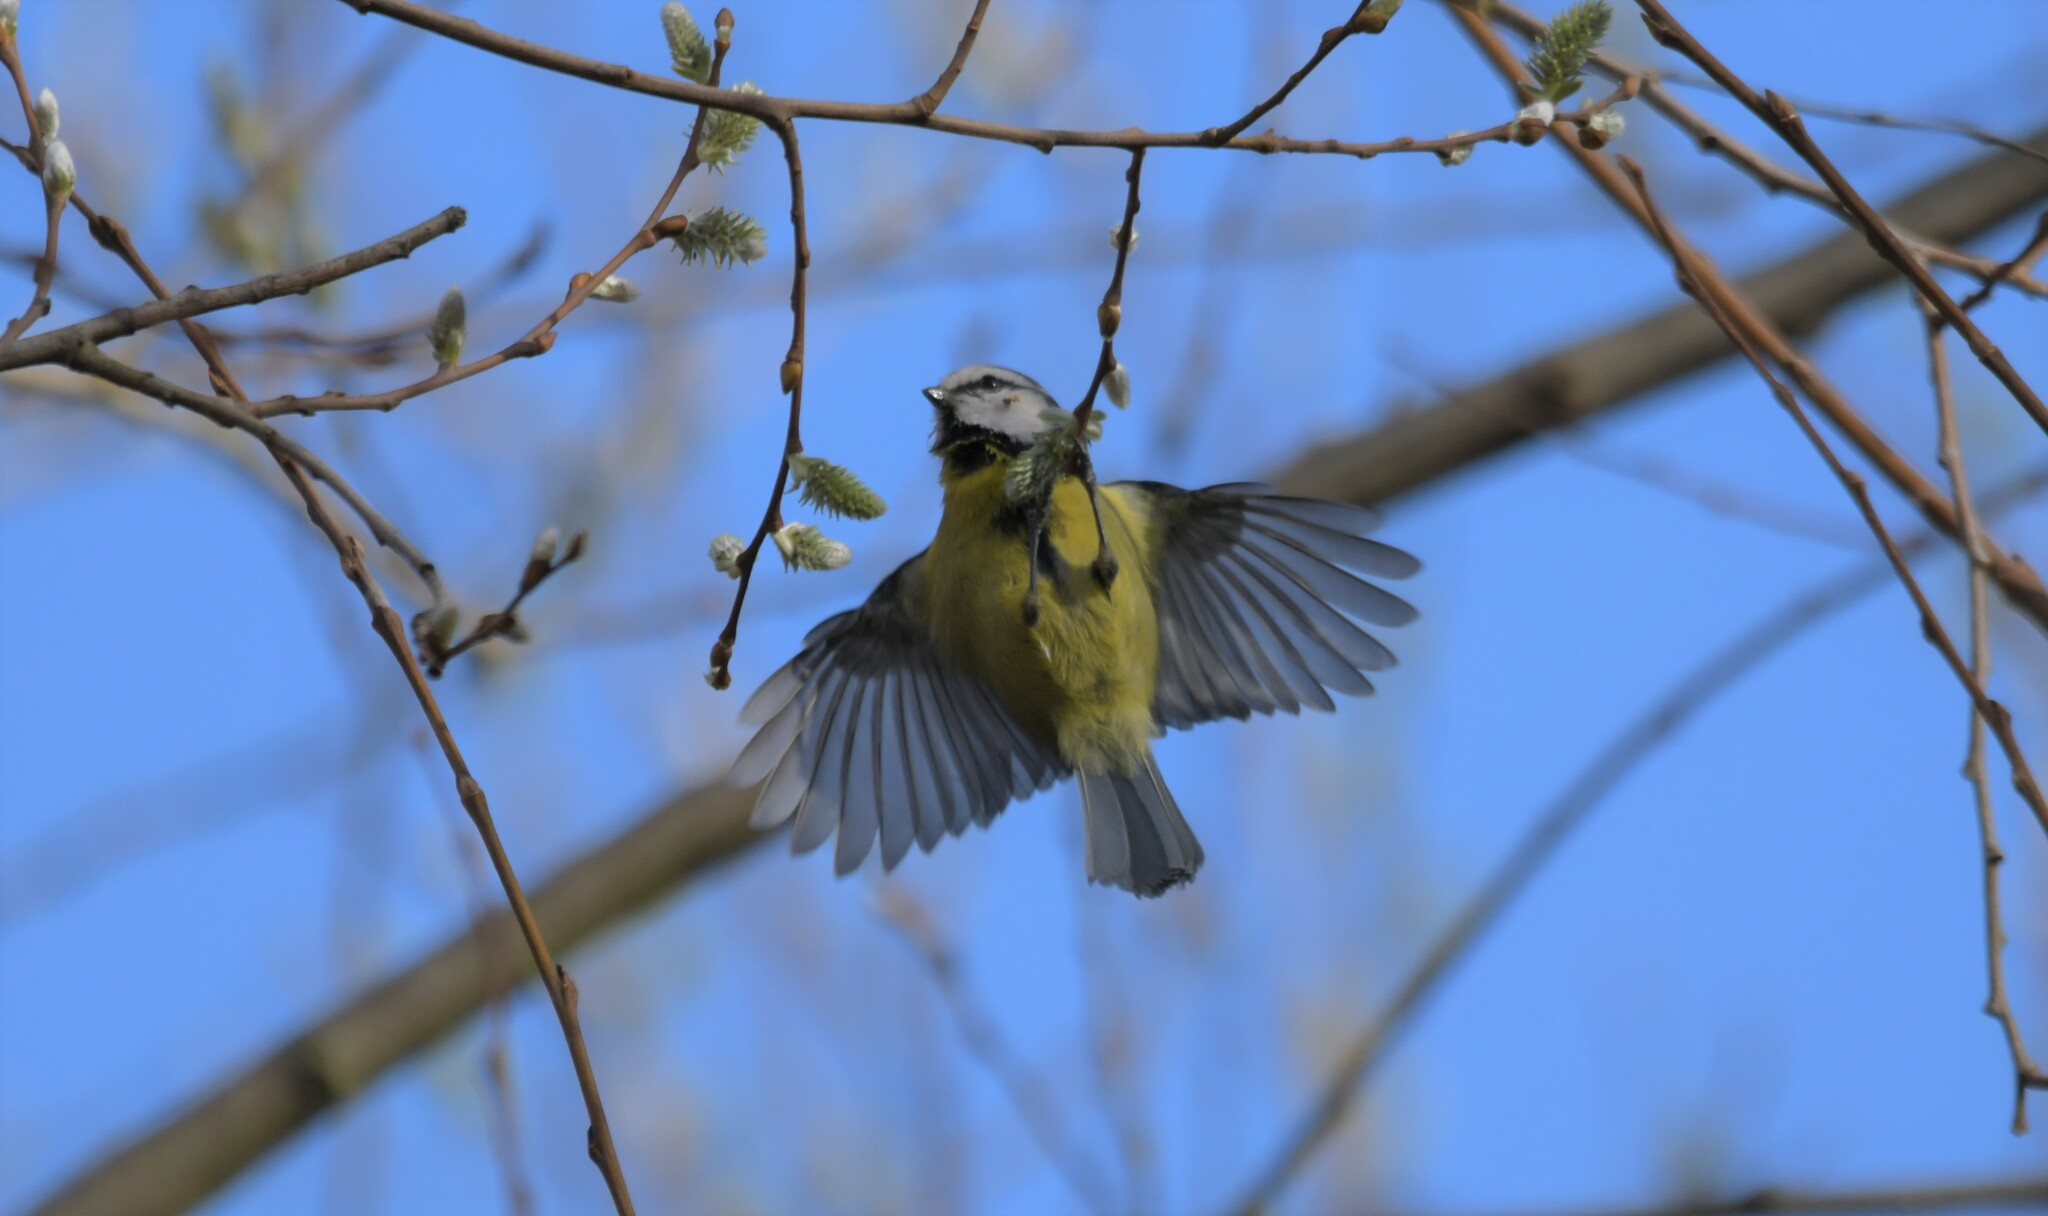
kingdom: Animalia
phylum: Chordata
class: Aves
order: Passeriformes
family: Paridae
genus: Cyanistes
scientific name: Cyanistes caeruleus
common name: Eurasian blue tit
